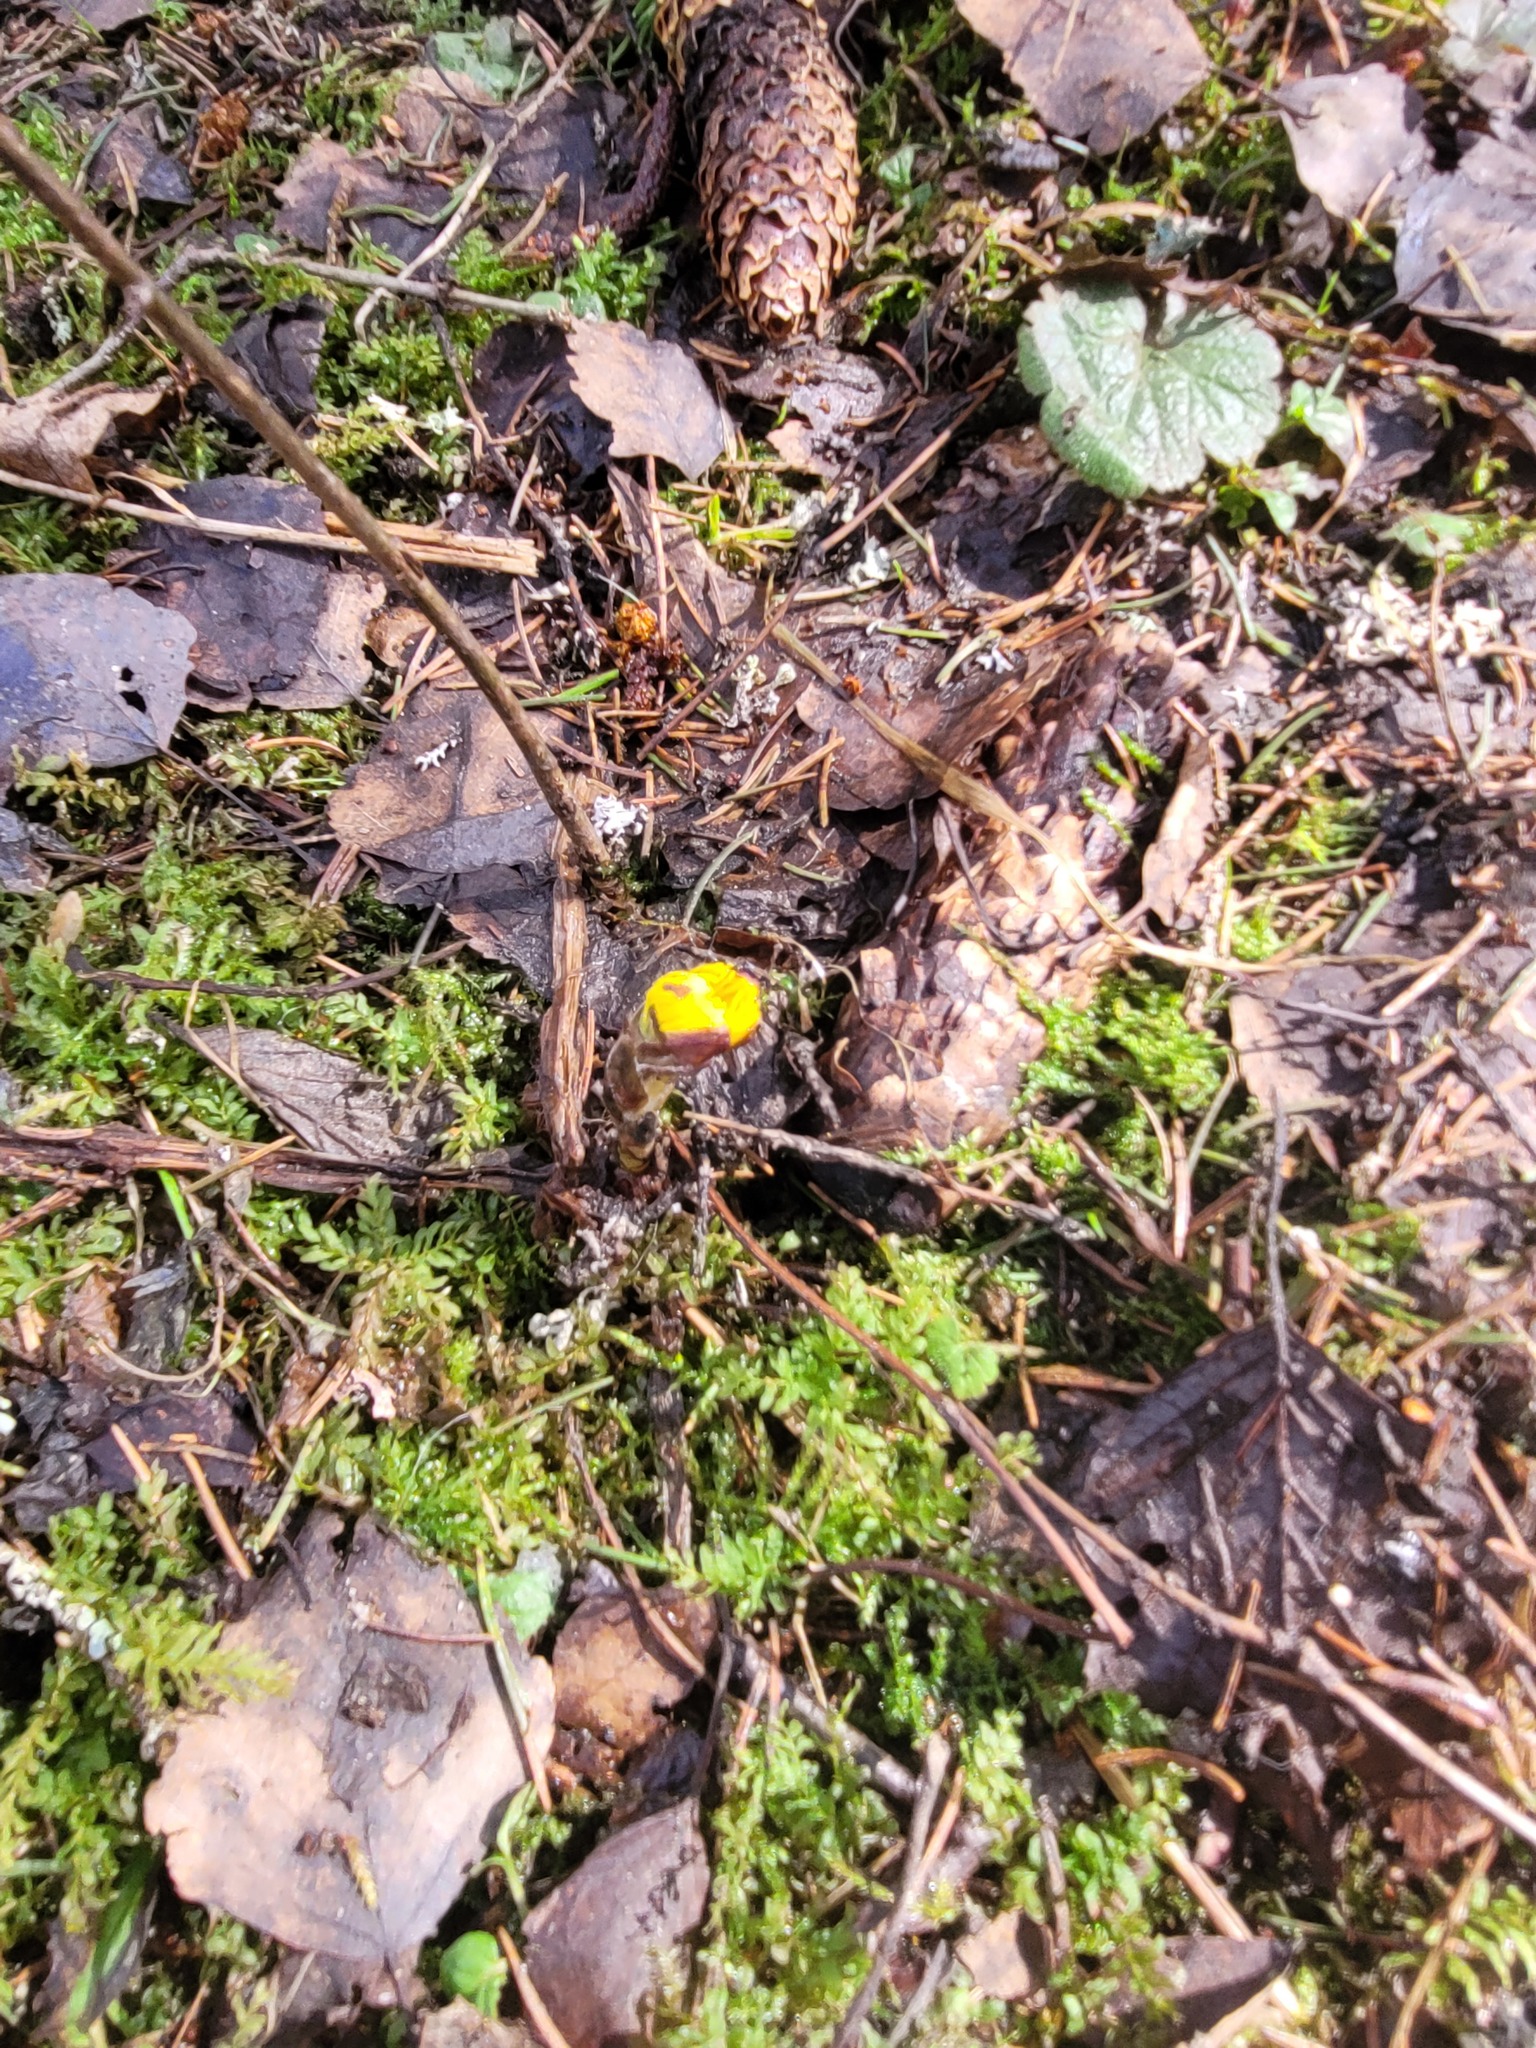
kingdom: Plantae
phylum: Tracheophyta
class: Magnoliopsida
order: Asterales
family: Asteraceae
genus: Tussilago
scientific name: Tussilago farfara
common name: Coltsfoot
